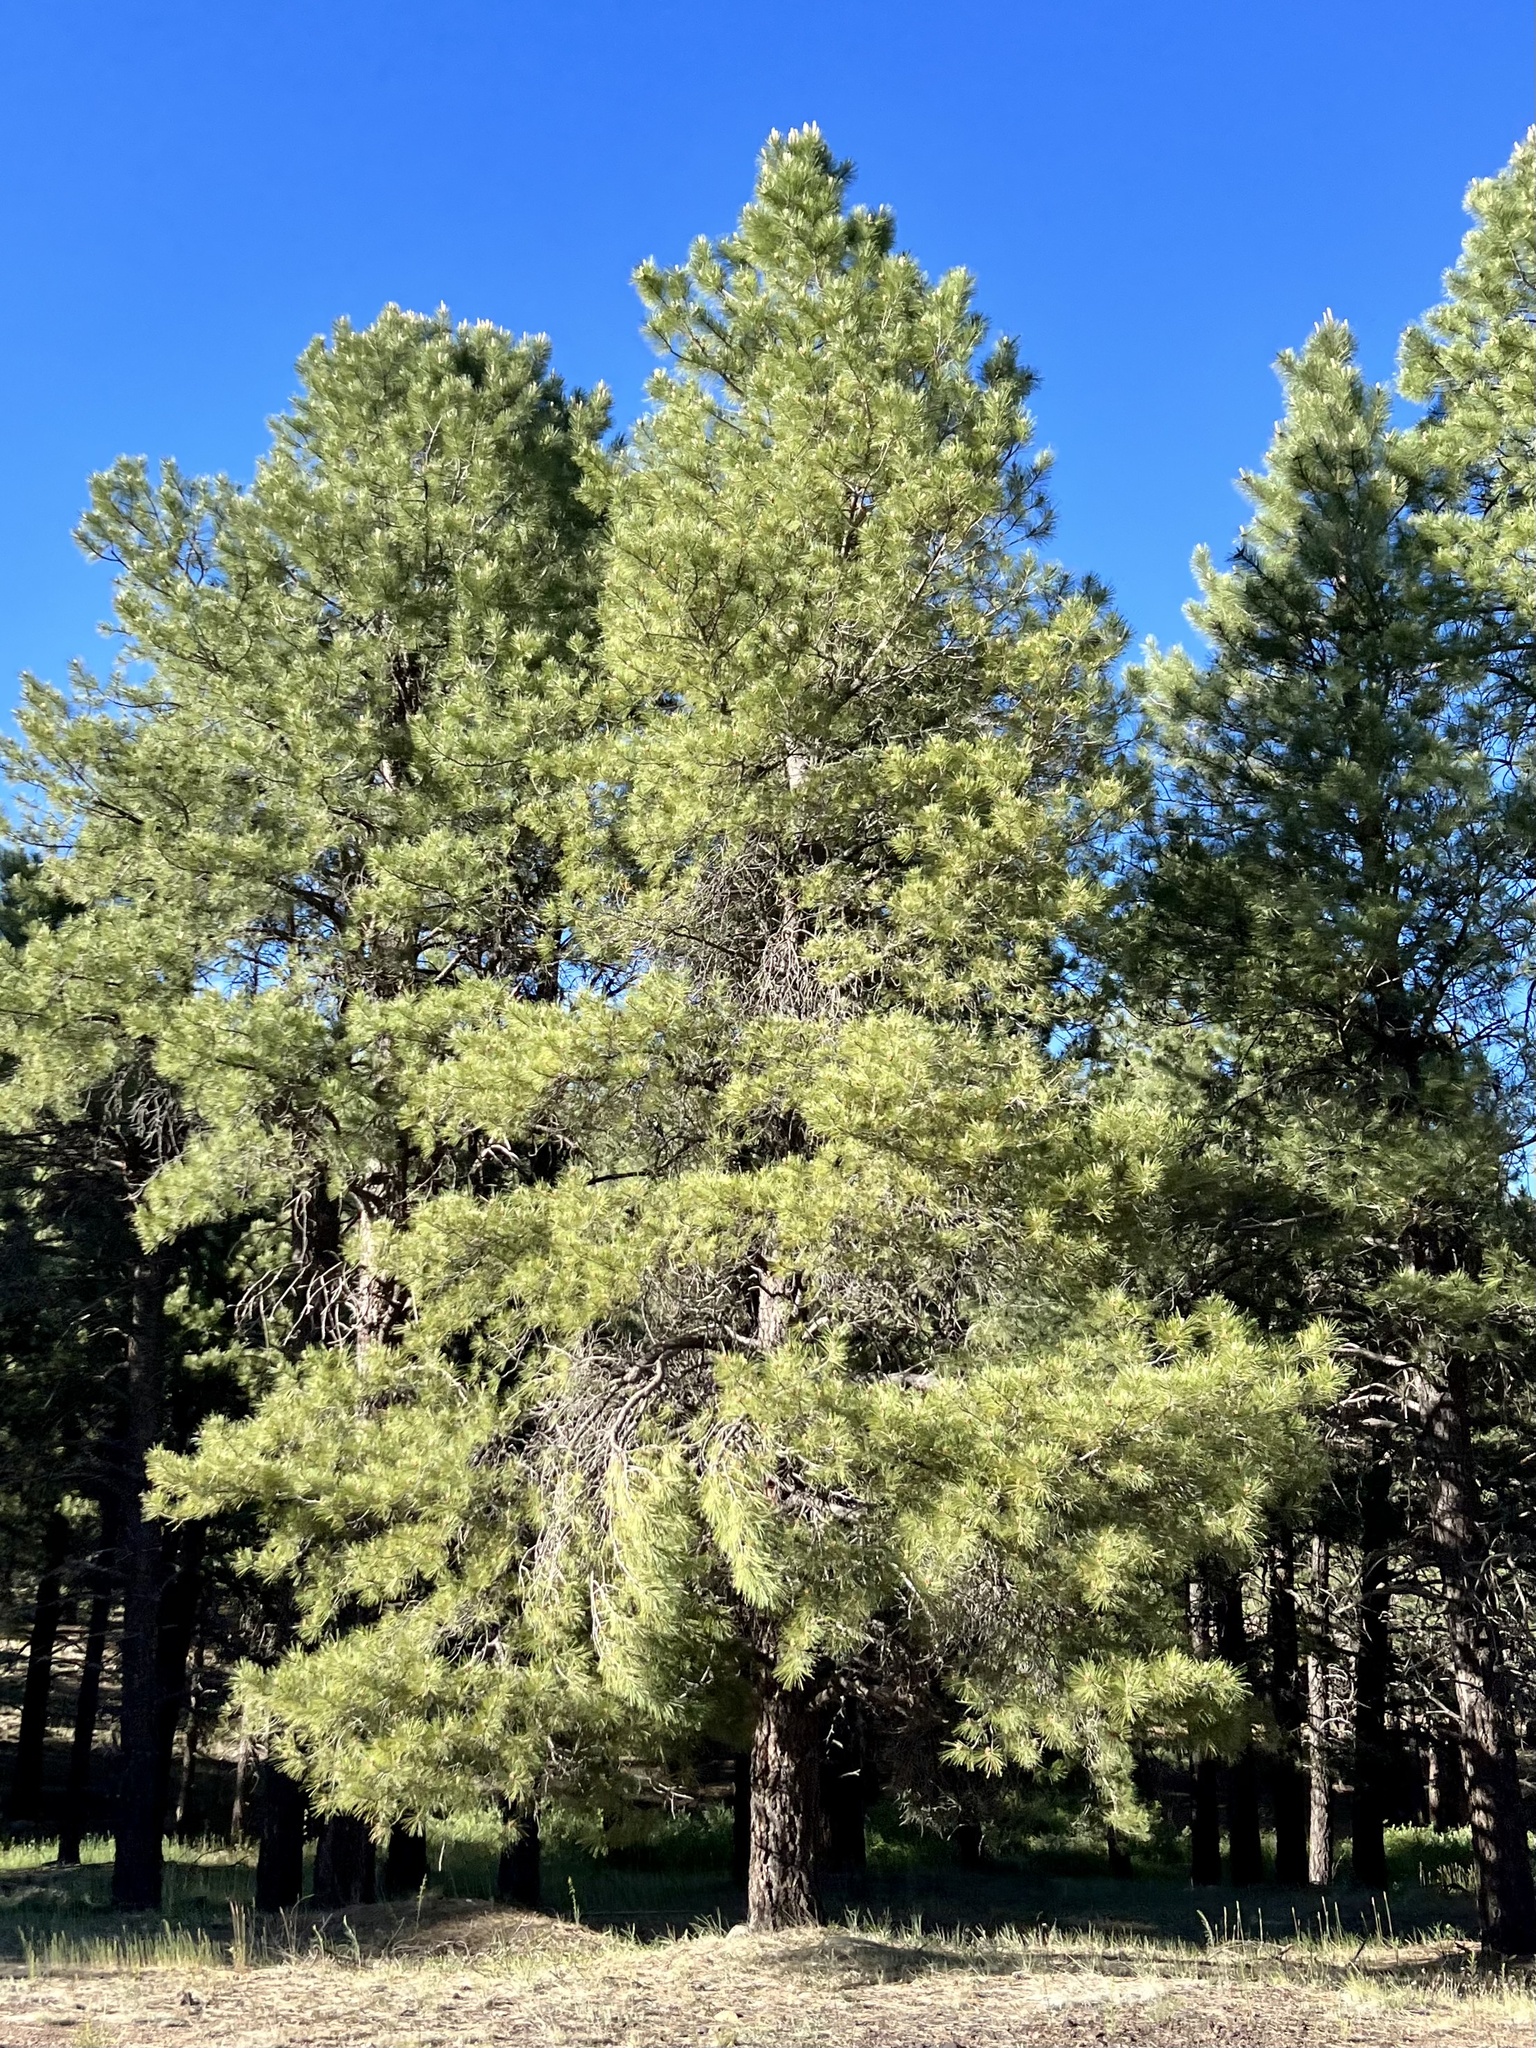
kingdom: Plantae
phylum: Tracheophyta
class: Pinopsida
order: Pinales
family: Pinaceae
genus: Pinus
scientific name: Pinus ponderosa
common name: Western yellow-pine
